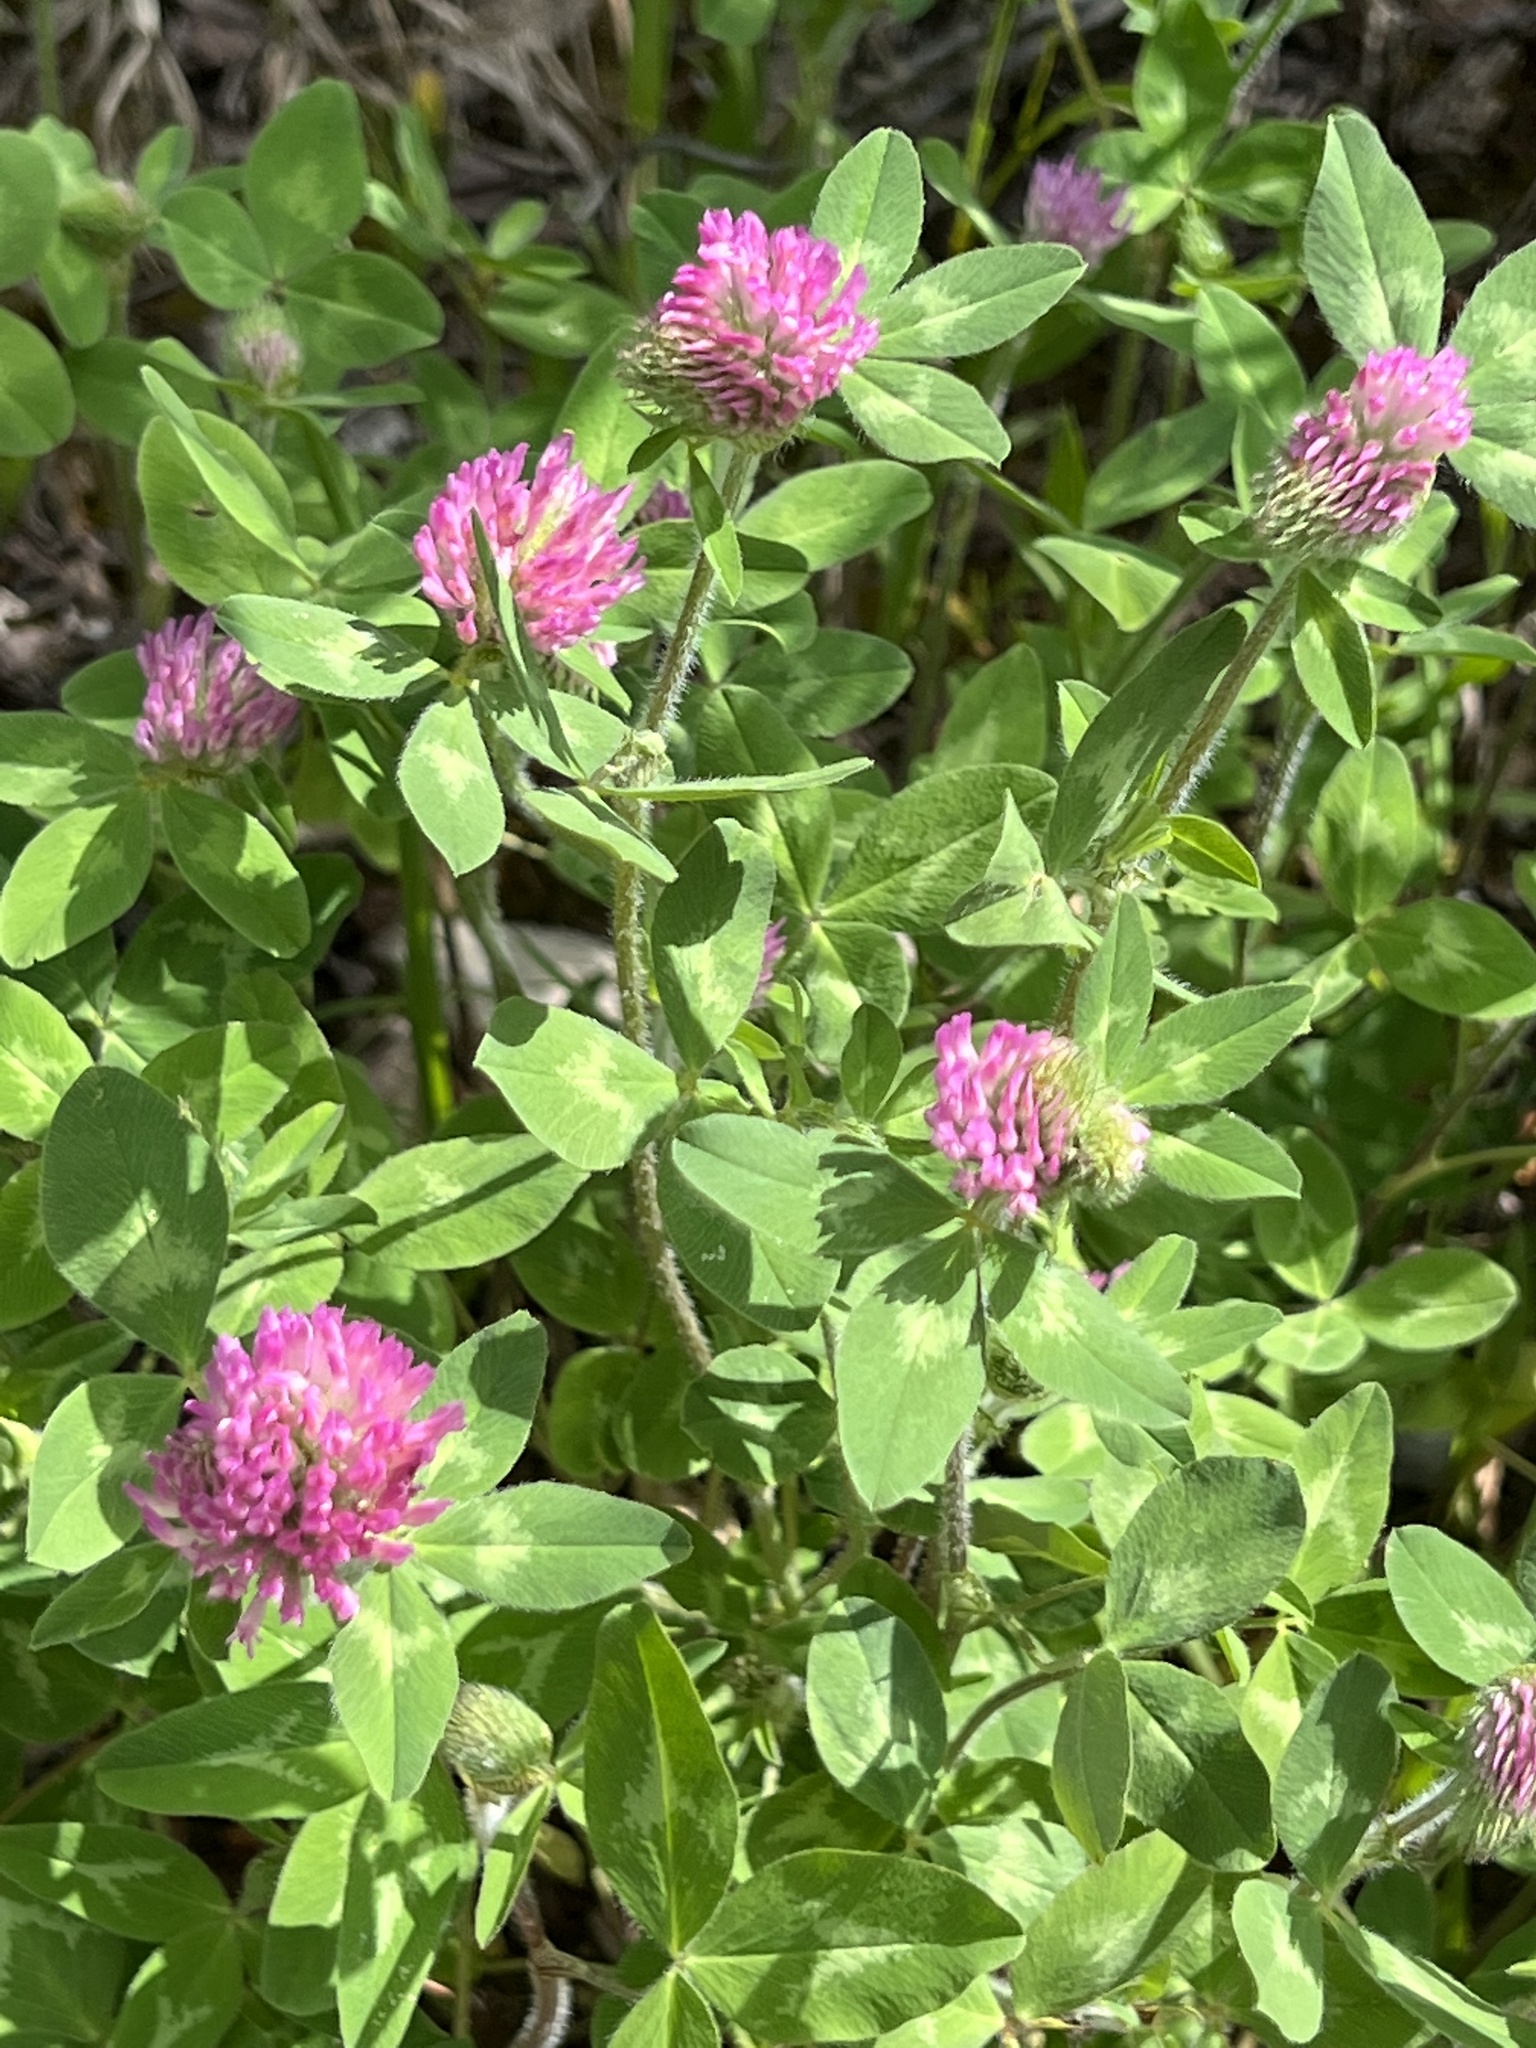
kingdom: Plantae
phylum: Tracheophyta
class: Magnoliopsida
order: Fabales
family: Fabaceae
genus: Trifolium
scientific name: Trifolium pratense
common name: Red clover
